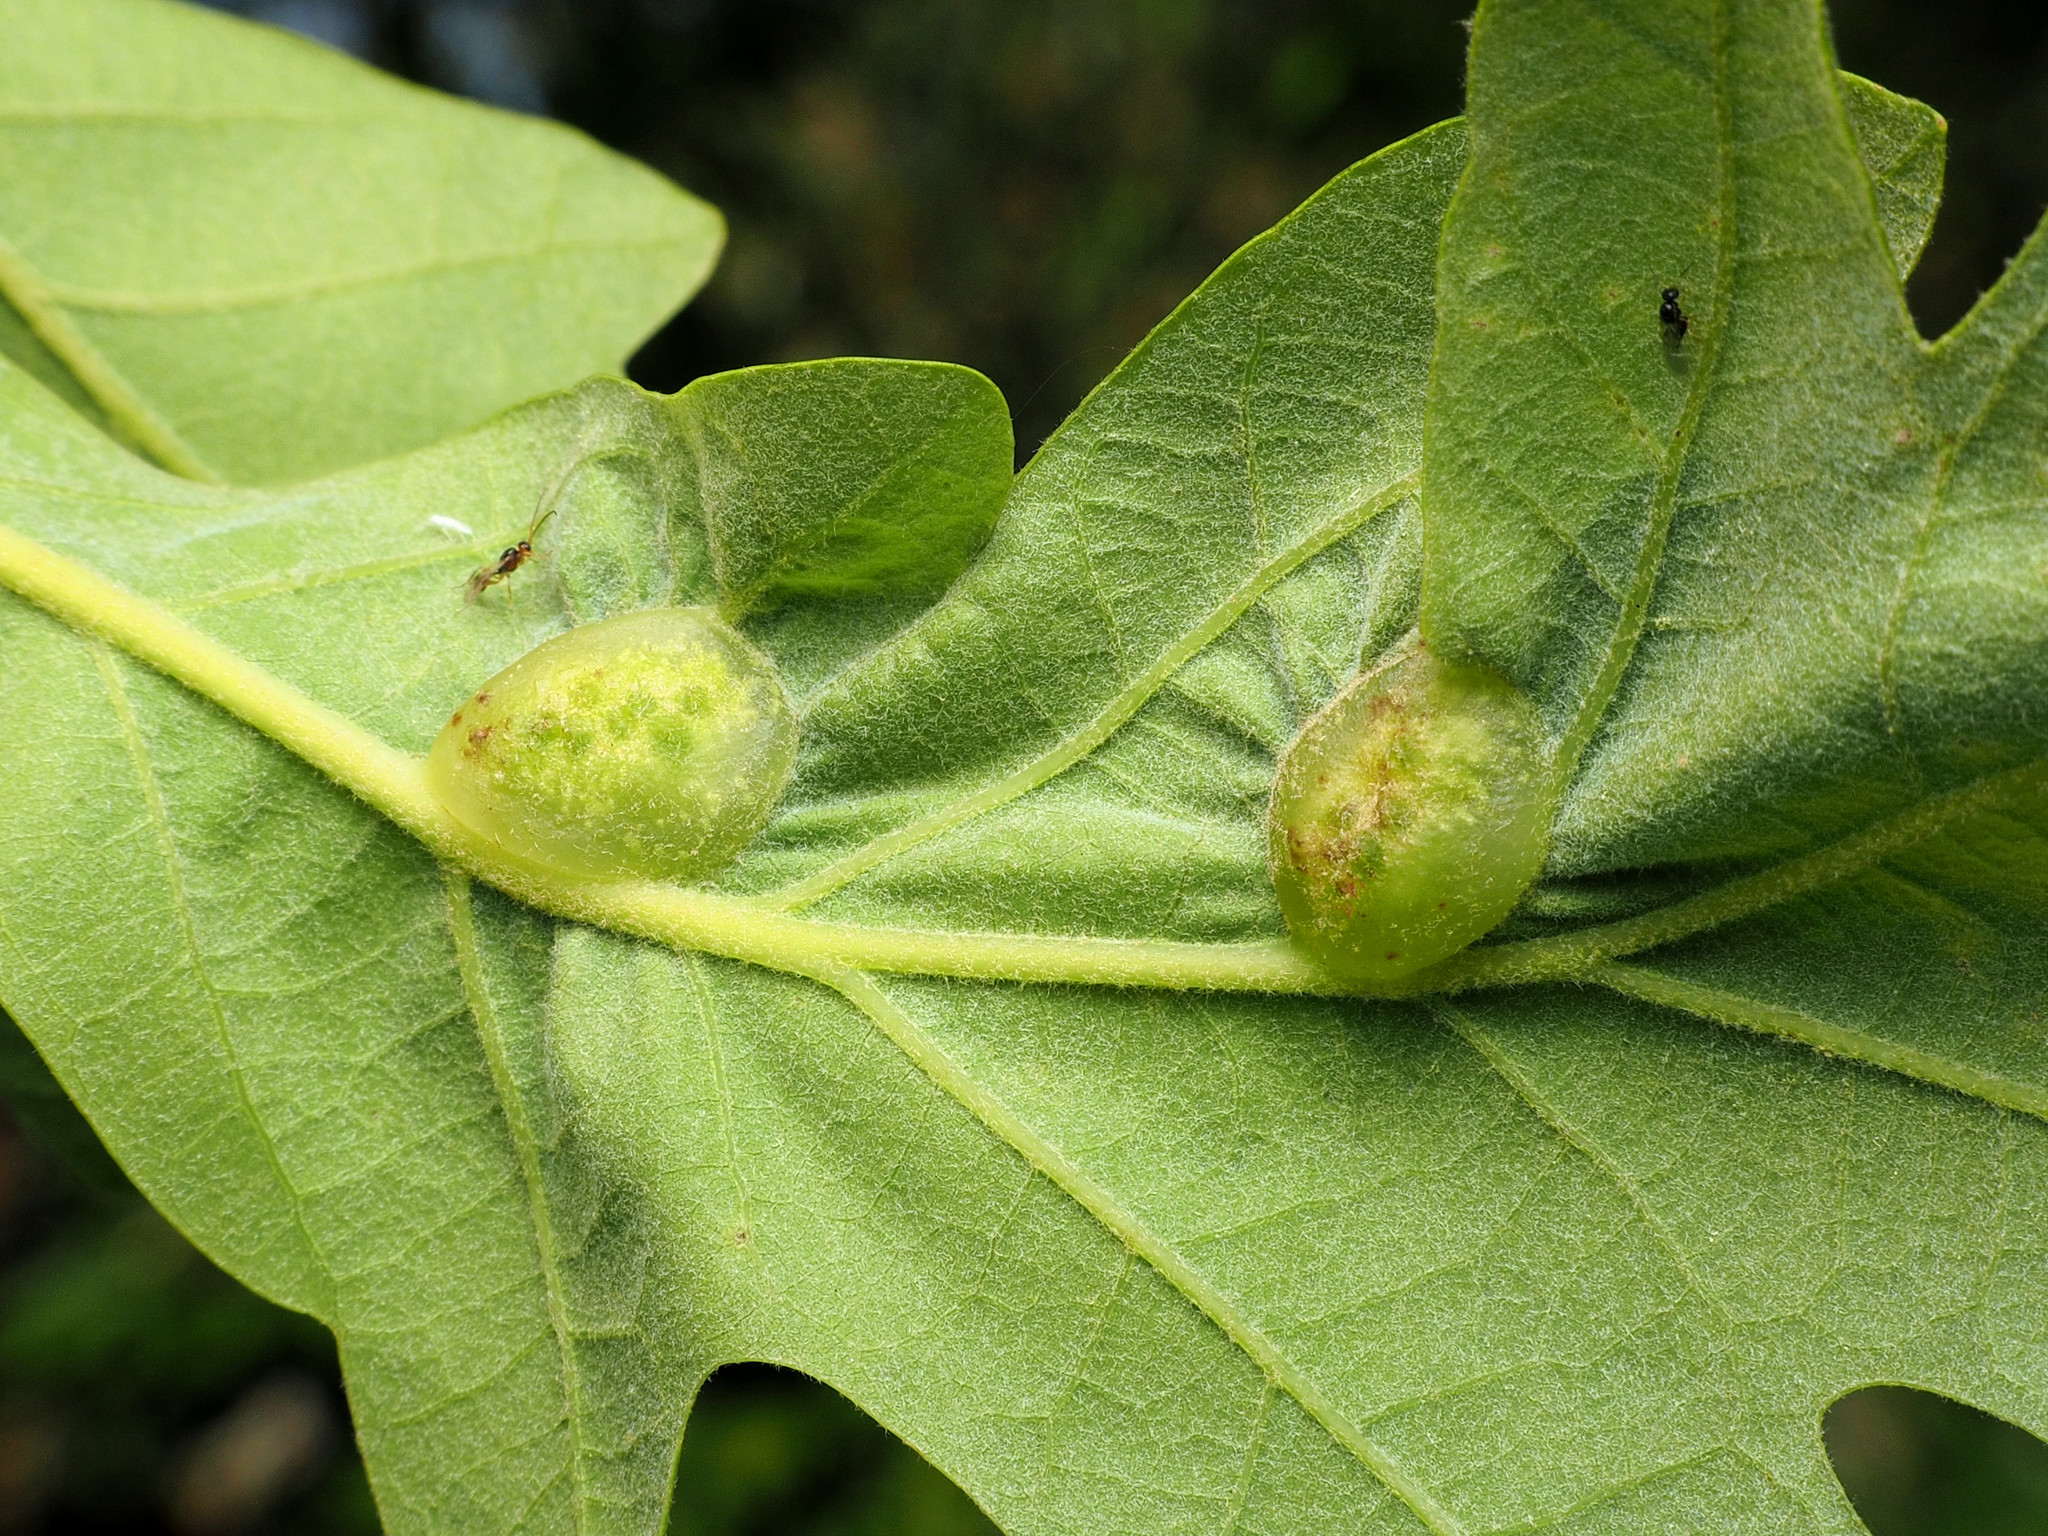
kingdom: Animalia
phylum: Arthropoda
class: Insecta
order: Hymenoptera
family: Cynipidae
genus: Neuroterus
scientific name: Neuroterus quercusirregularis
